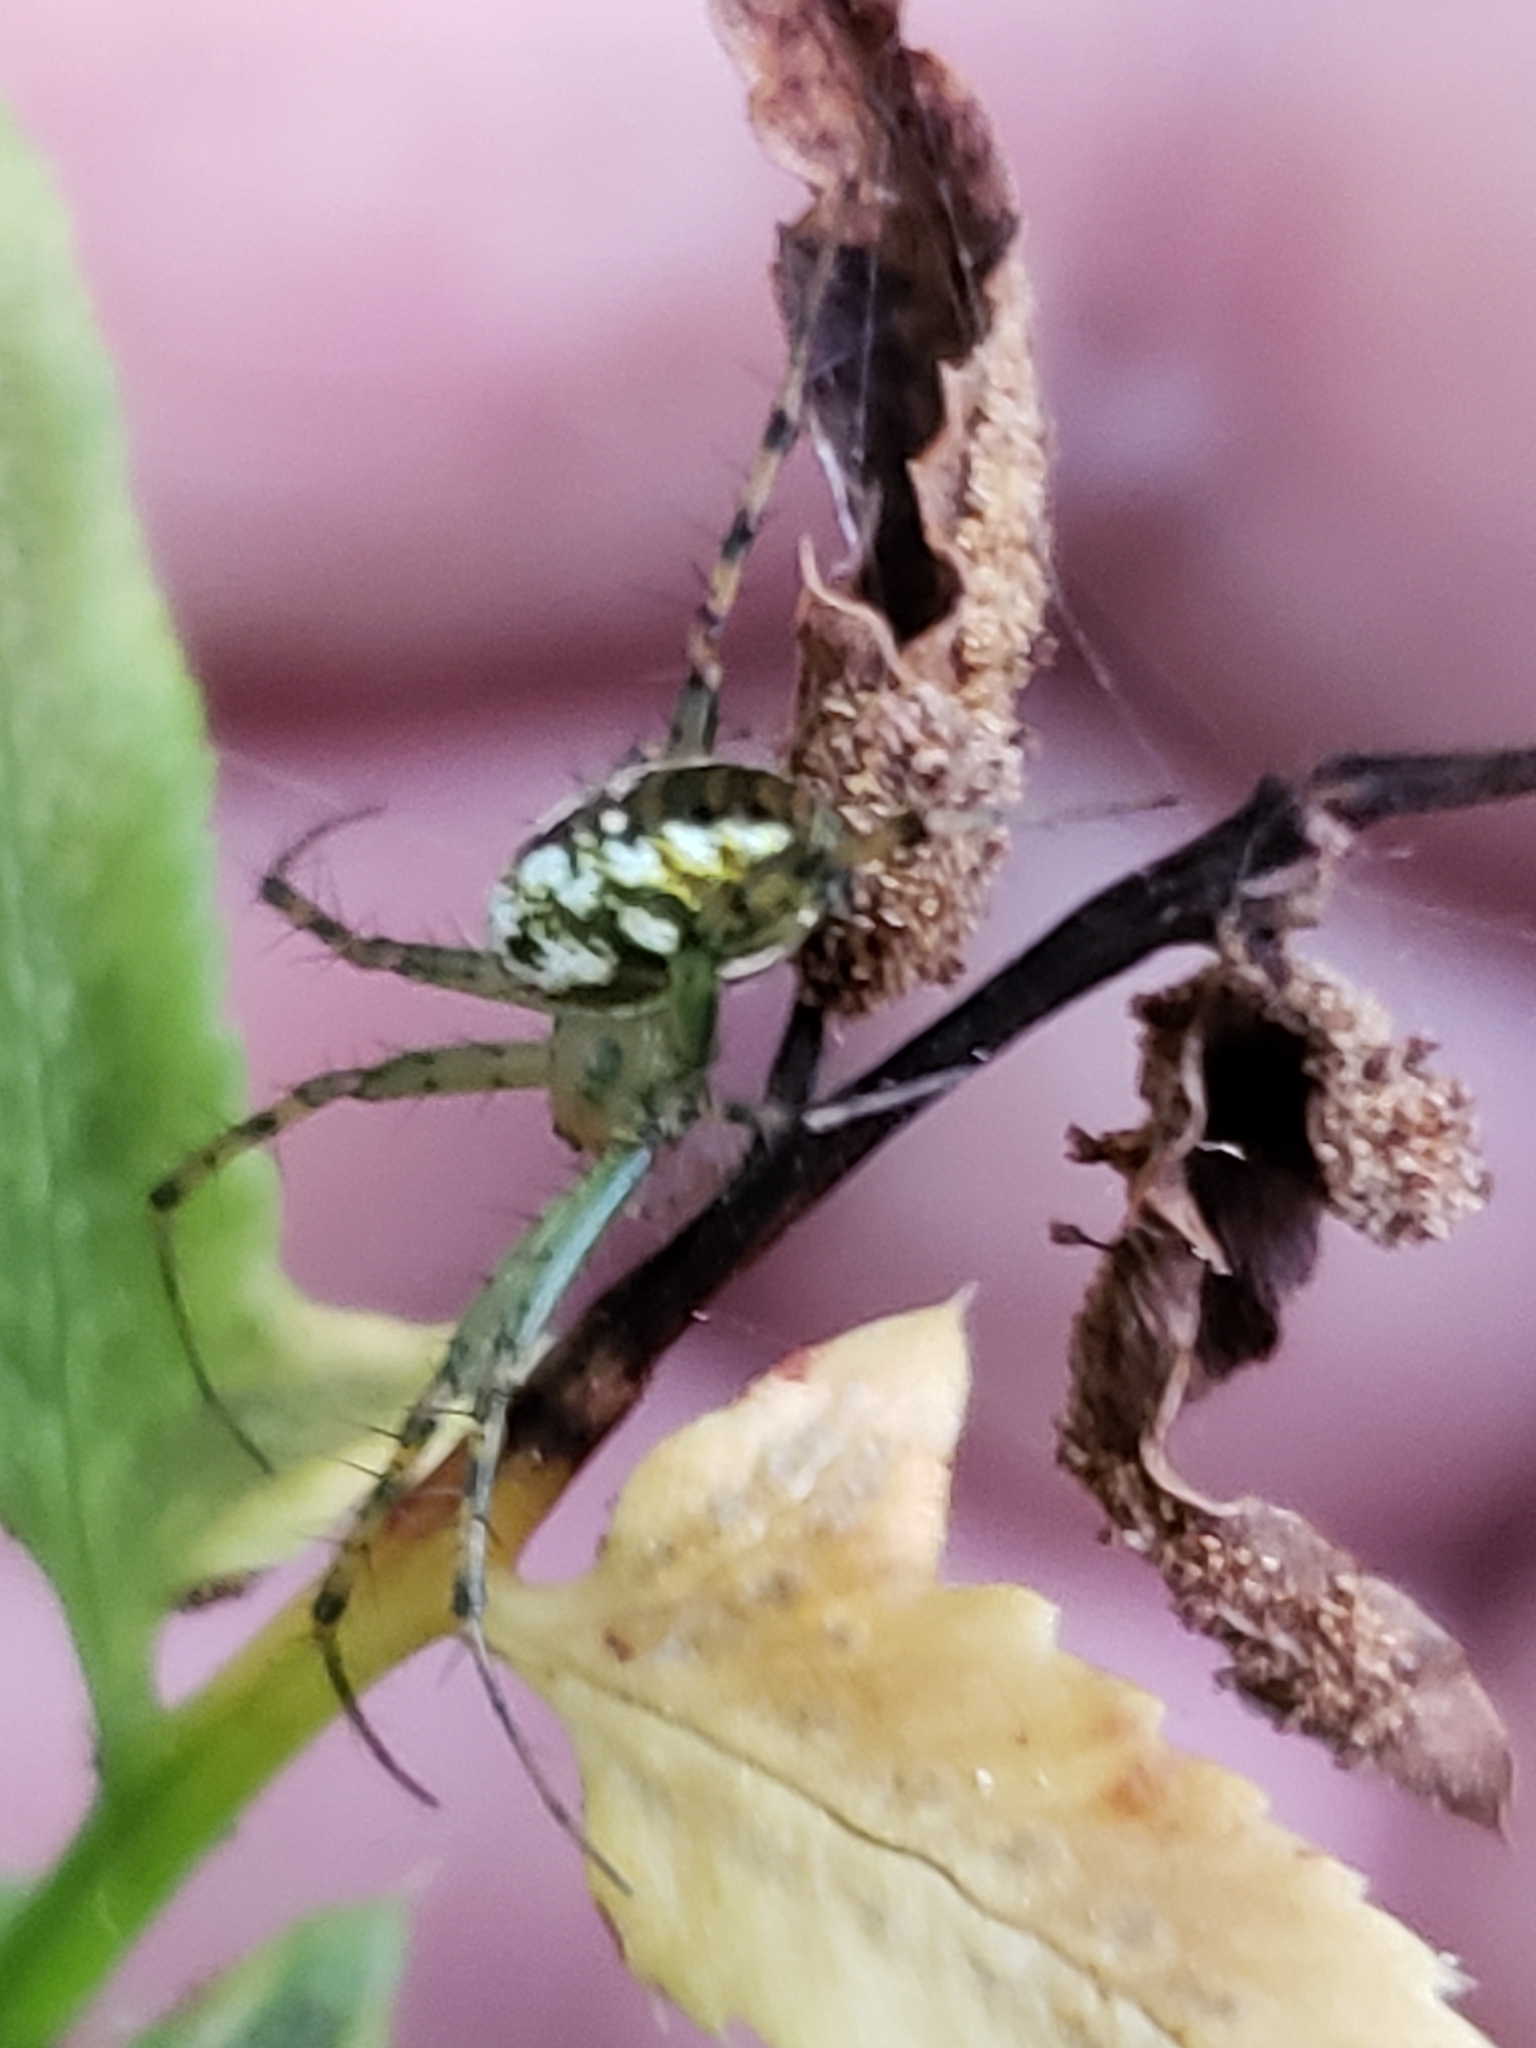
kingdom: Animalia
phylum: Arthropoda
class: Arachnida
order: Araneae
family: Araneidae
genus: Mangora
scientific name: Mangora spiculata
